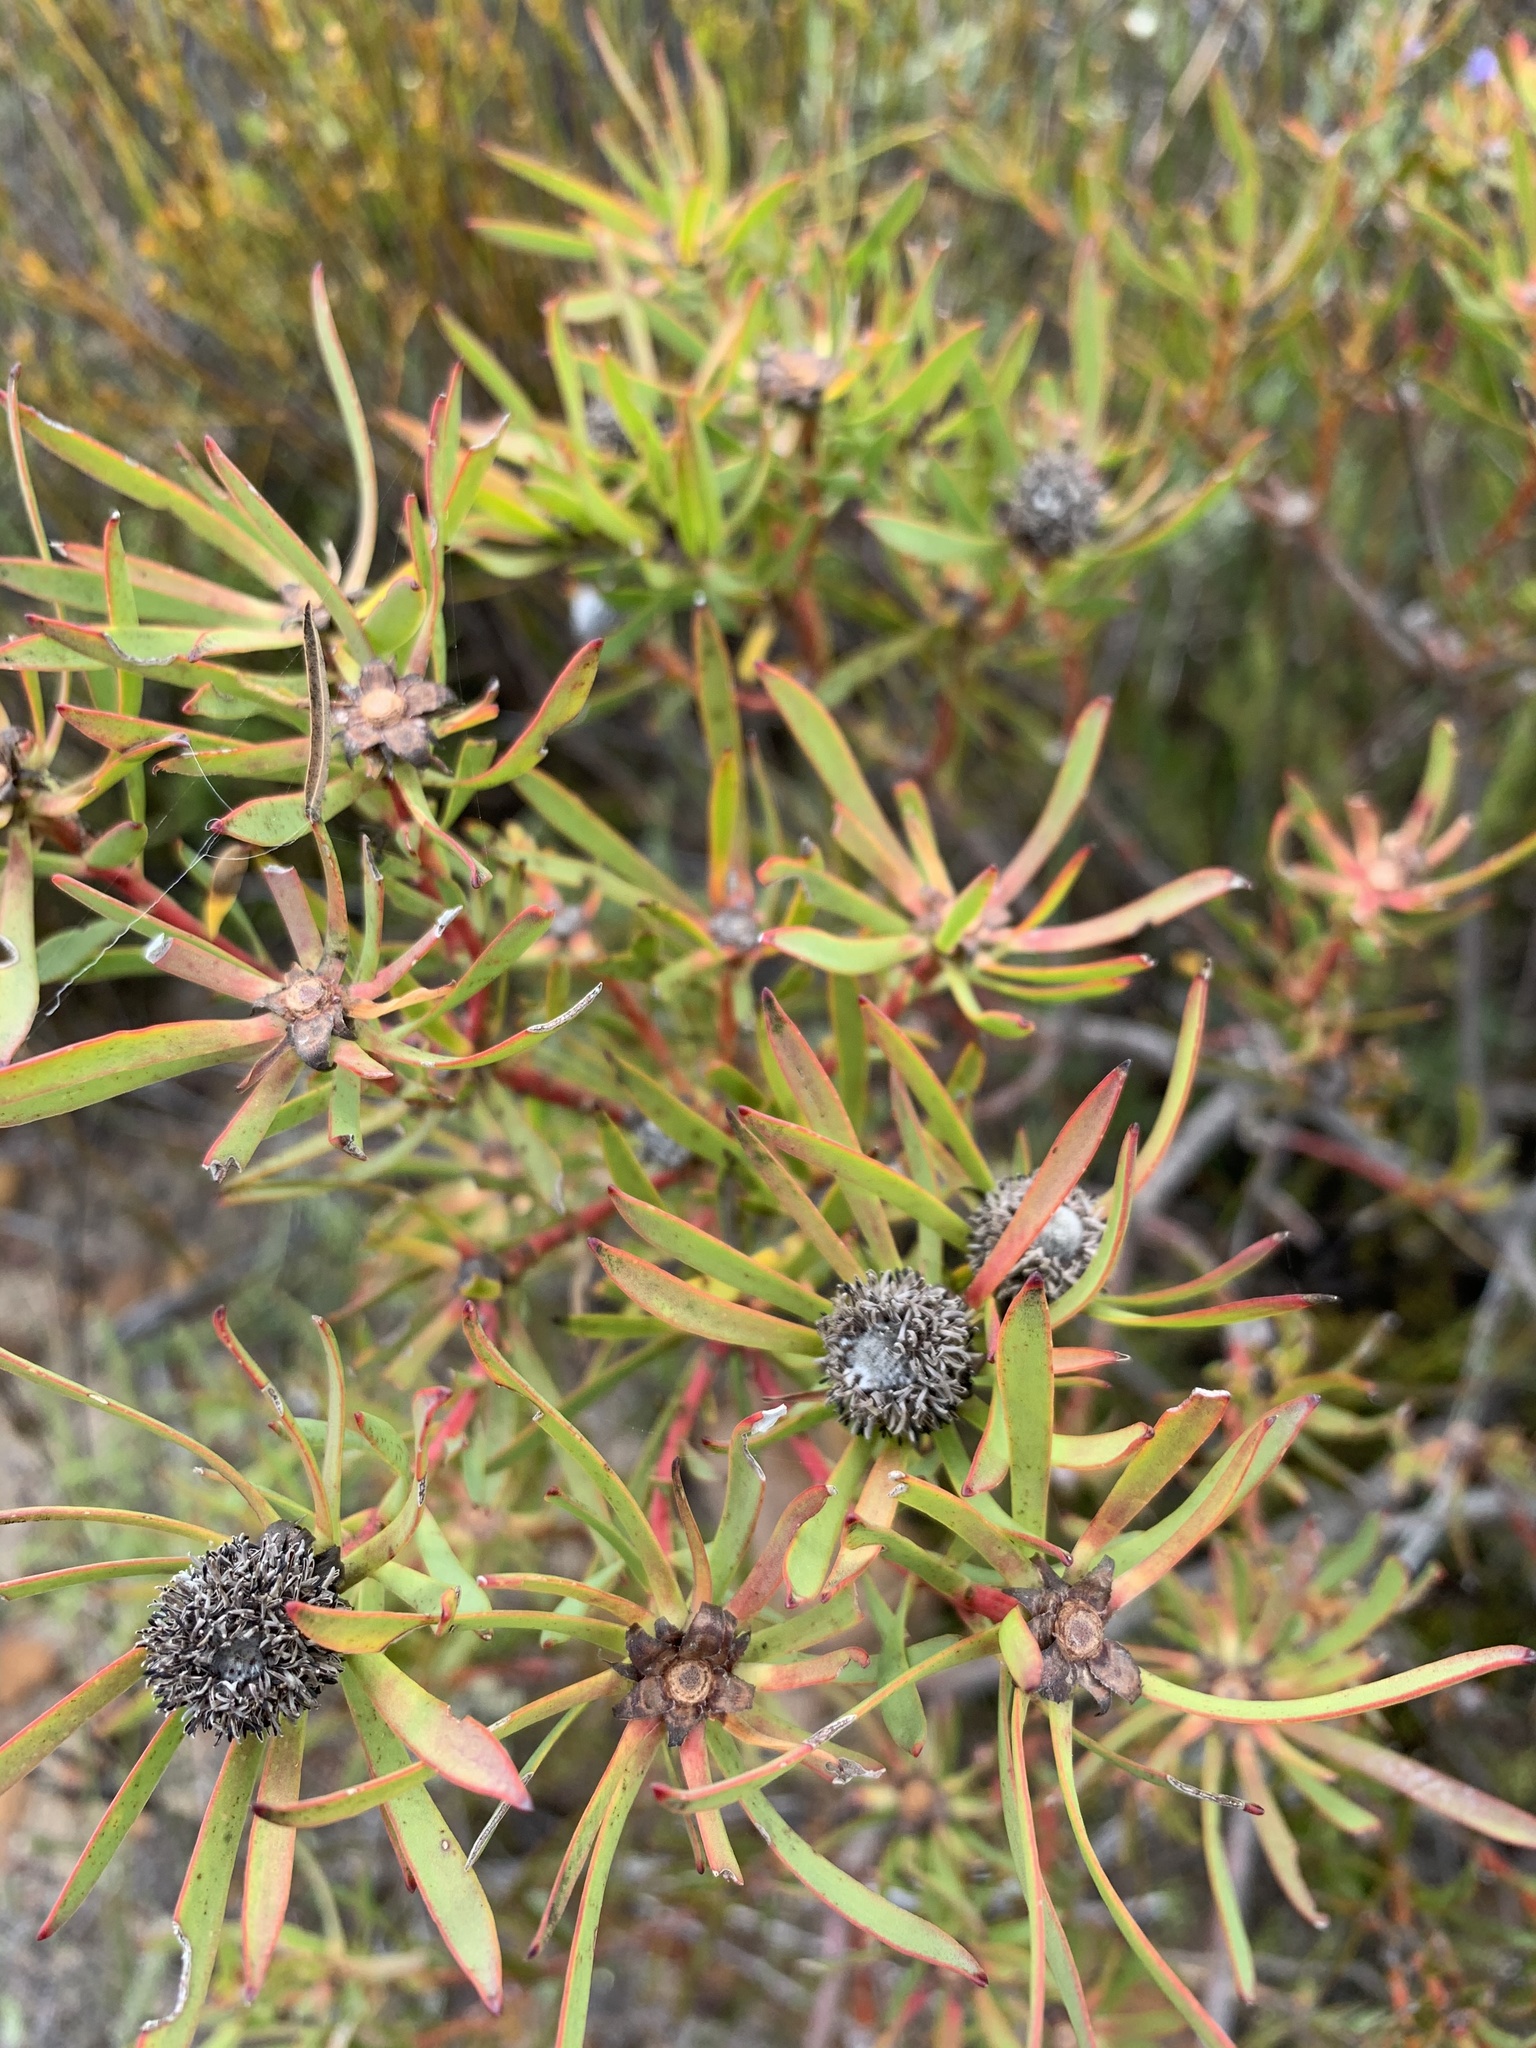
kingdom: Plantae
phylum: Tracheophyta
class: Magnoliopsida
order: Proteales
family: Proteaceae
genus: Leucadendron
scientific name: Leucadendron salignum
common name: Common sunshine conebush
